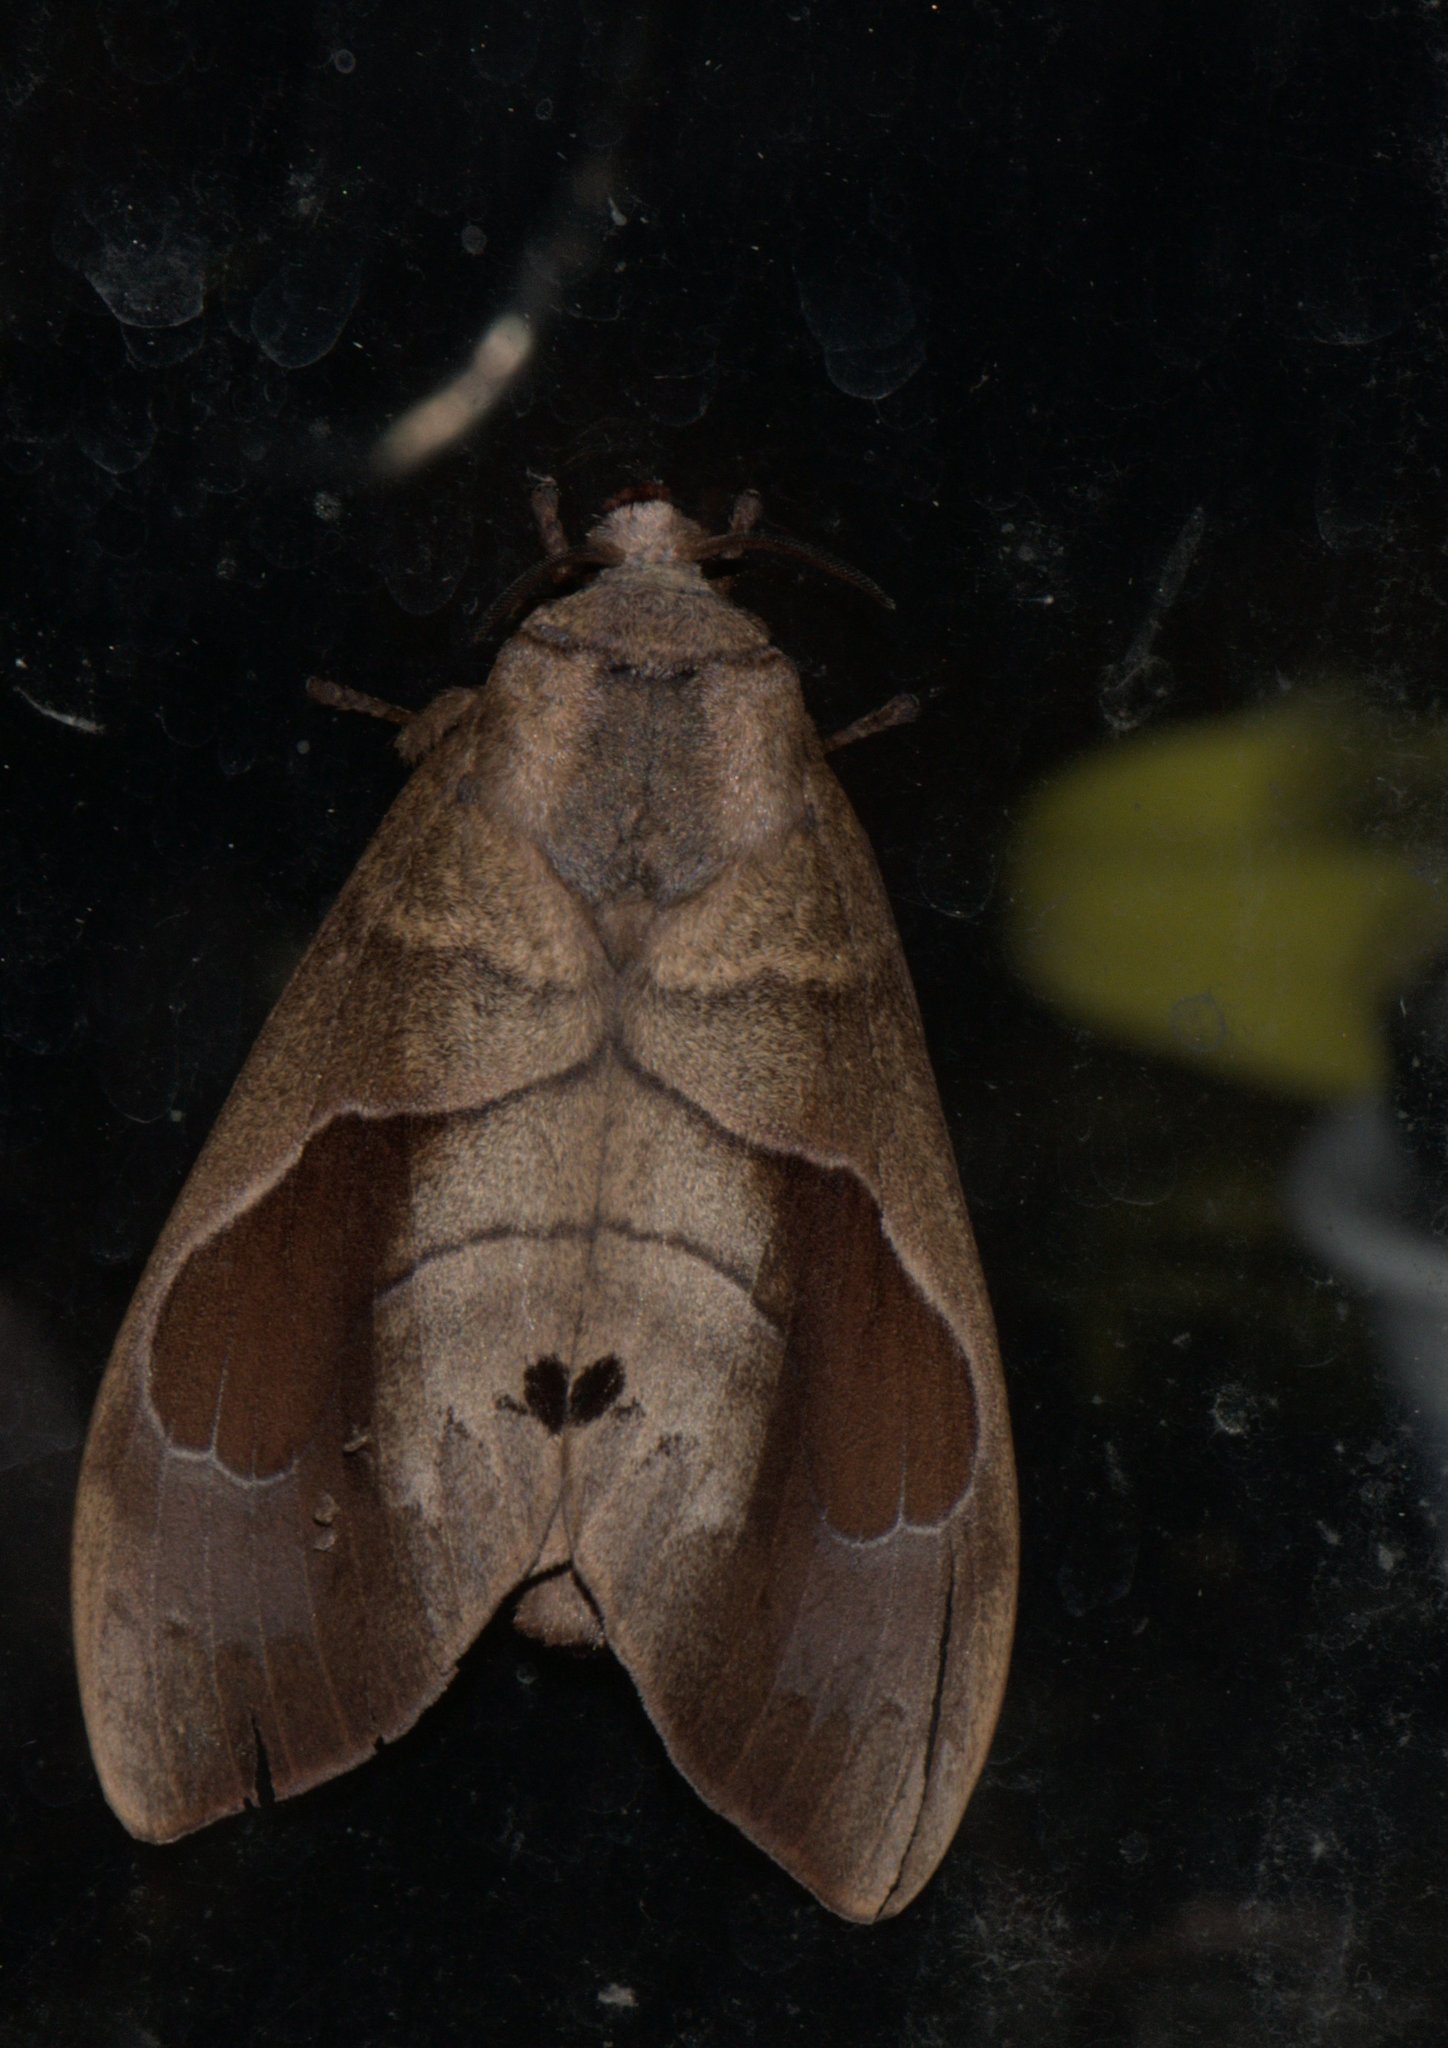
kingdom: Animalia
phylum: Arthropoda
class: Insecta
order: Lepidoptera
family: Lasiocampidae
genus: Paralebeda
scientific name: Paralebeda femorata
